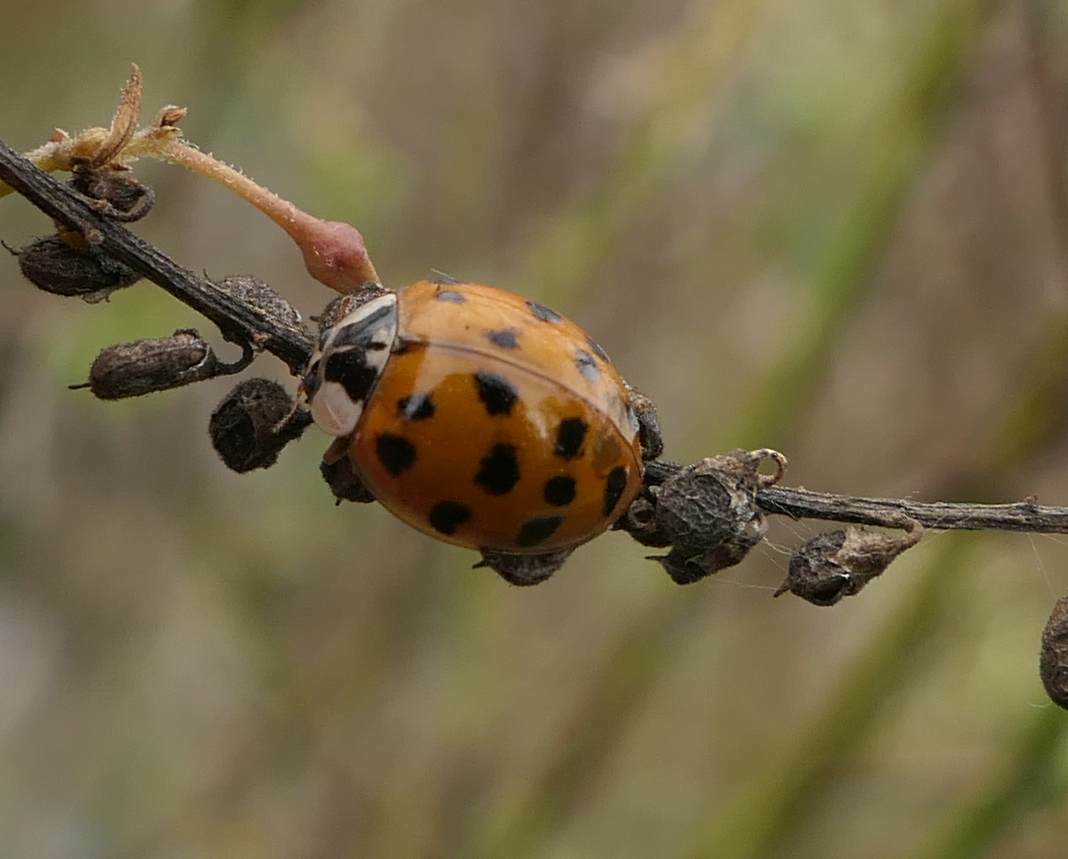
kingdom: Animalia
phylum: Arthropoda
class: Insecta
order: Coleoptera
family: Coccinellidae
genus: Harmonia
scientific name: Harmonia axyridis
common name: Harlequin ladybird
